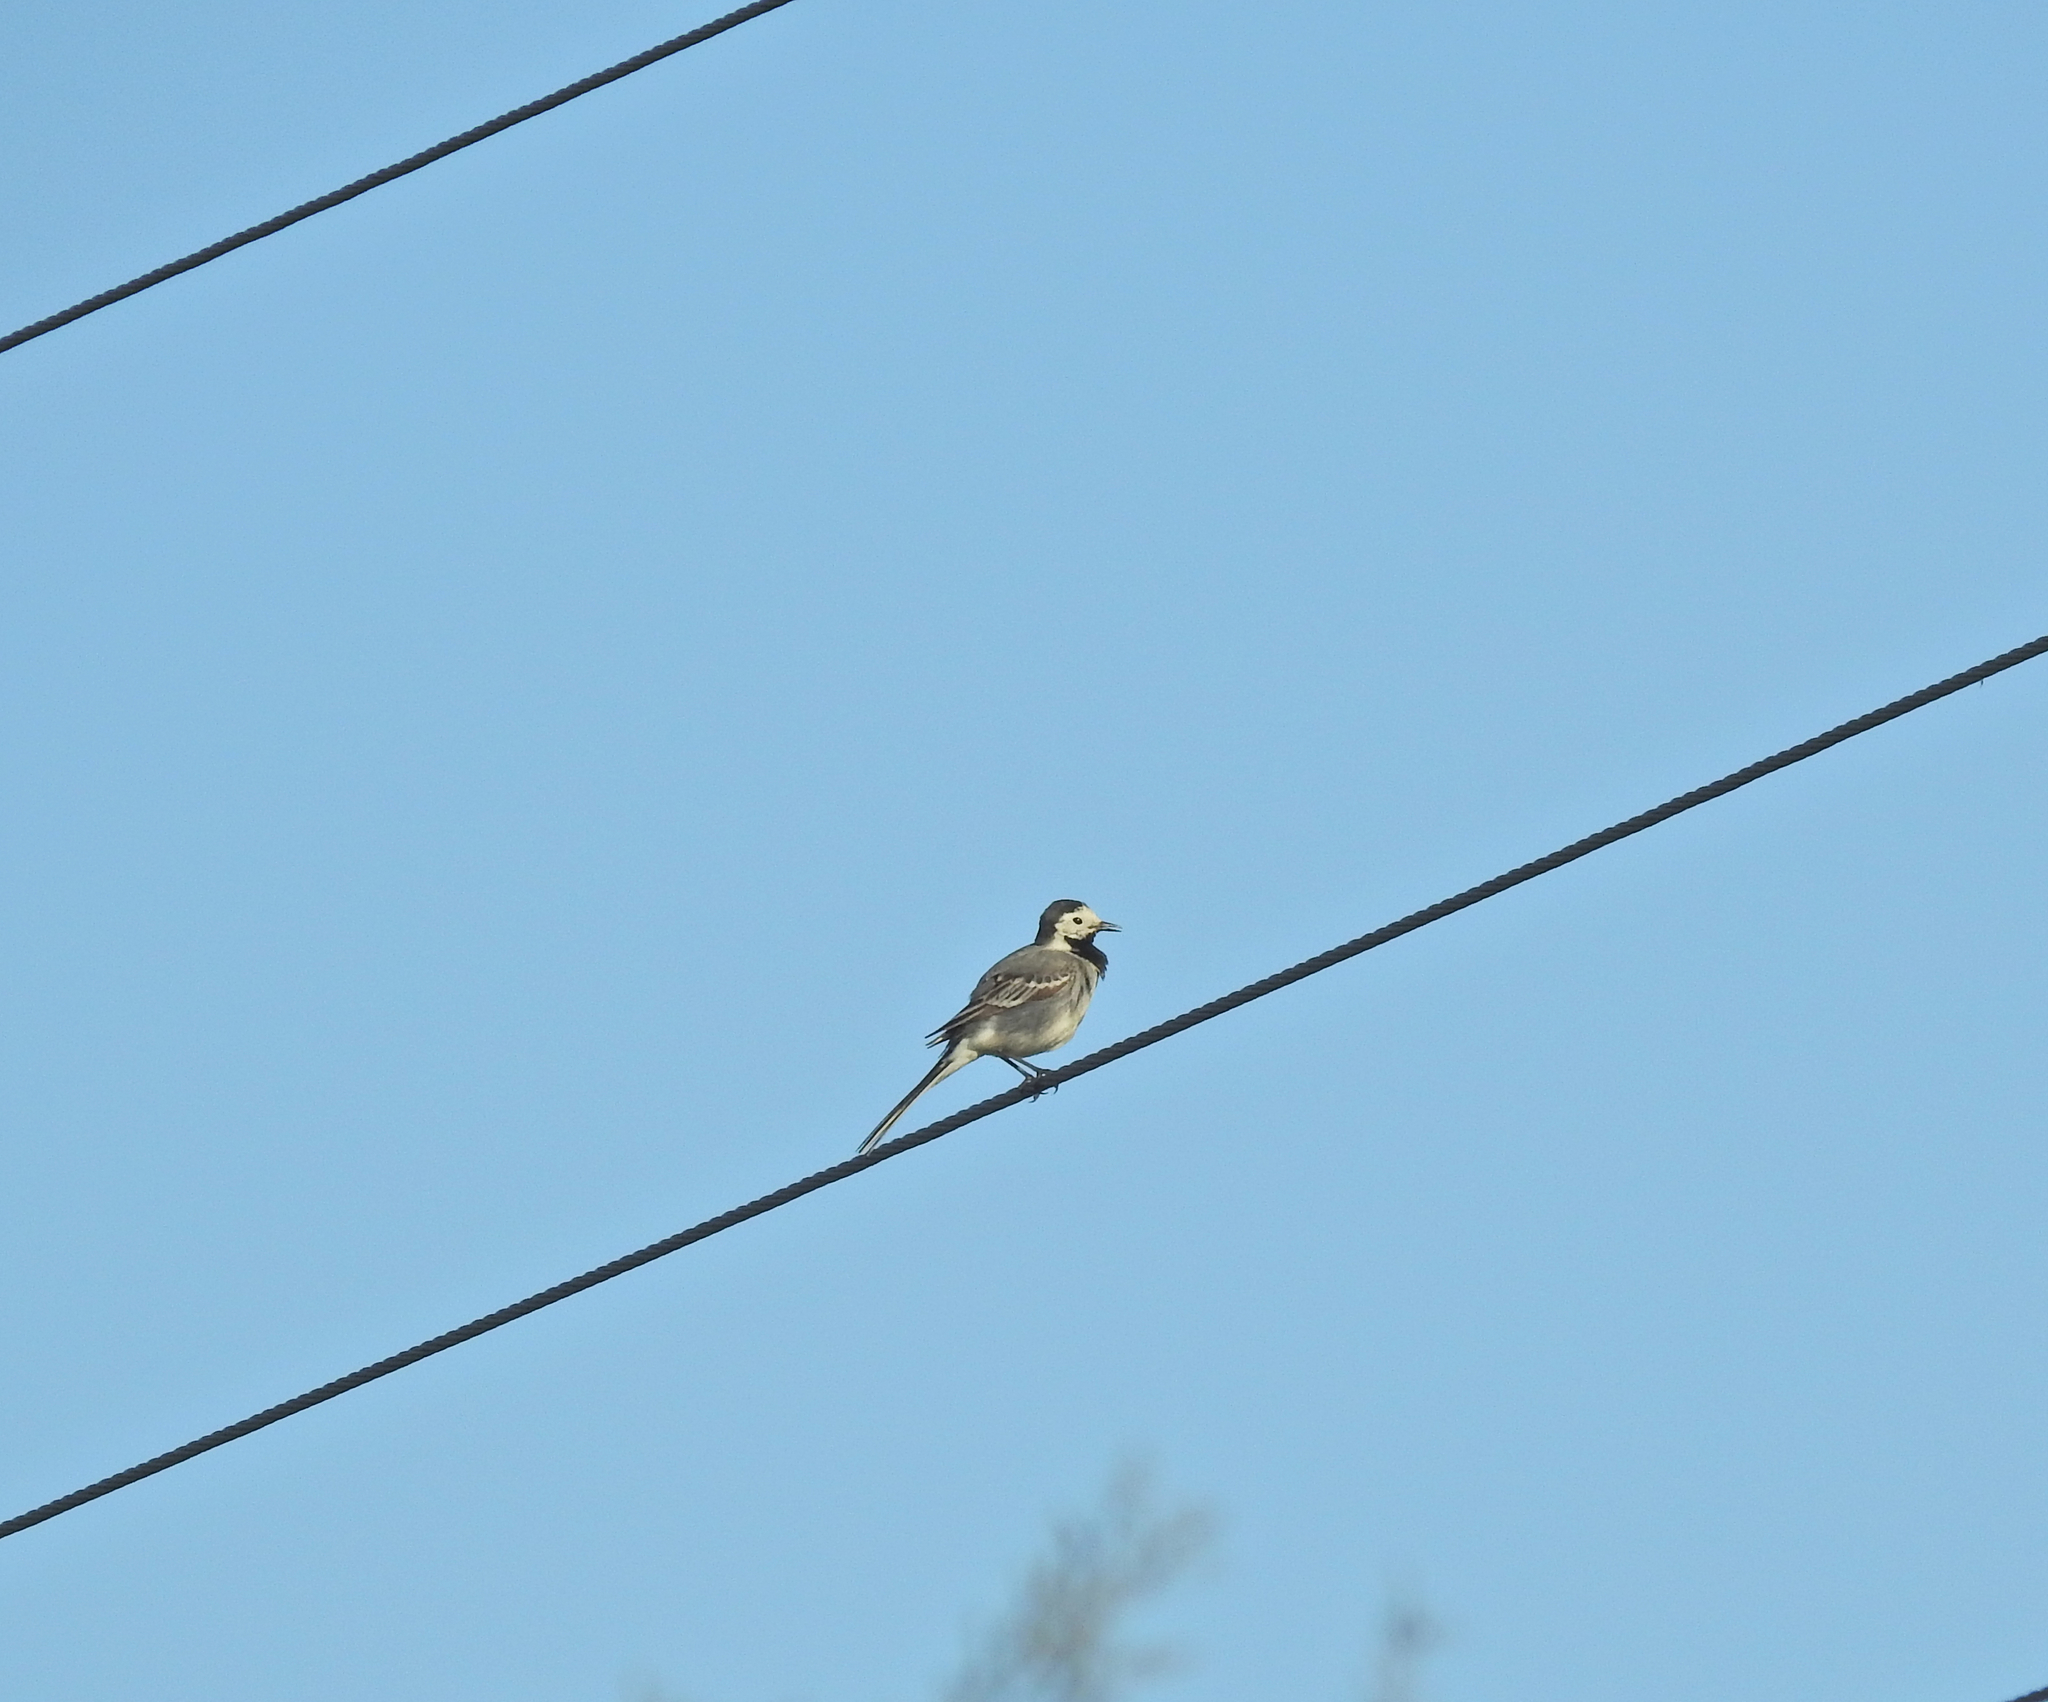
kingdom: Animalia
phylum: Chordata
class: Aves
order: Passeriformes
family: Motacillidae
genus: Motacilla
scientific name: Motacilla alba
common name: White wagtail
